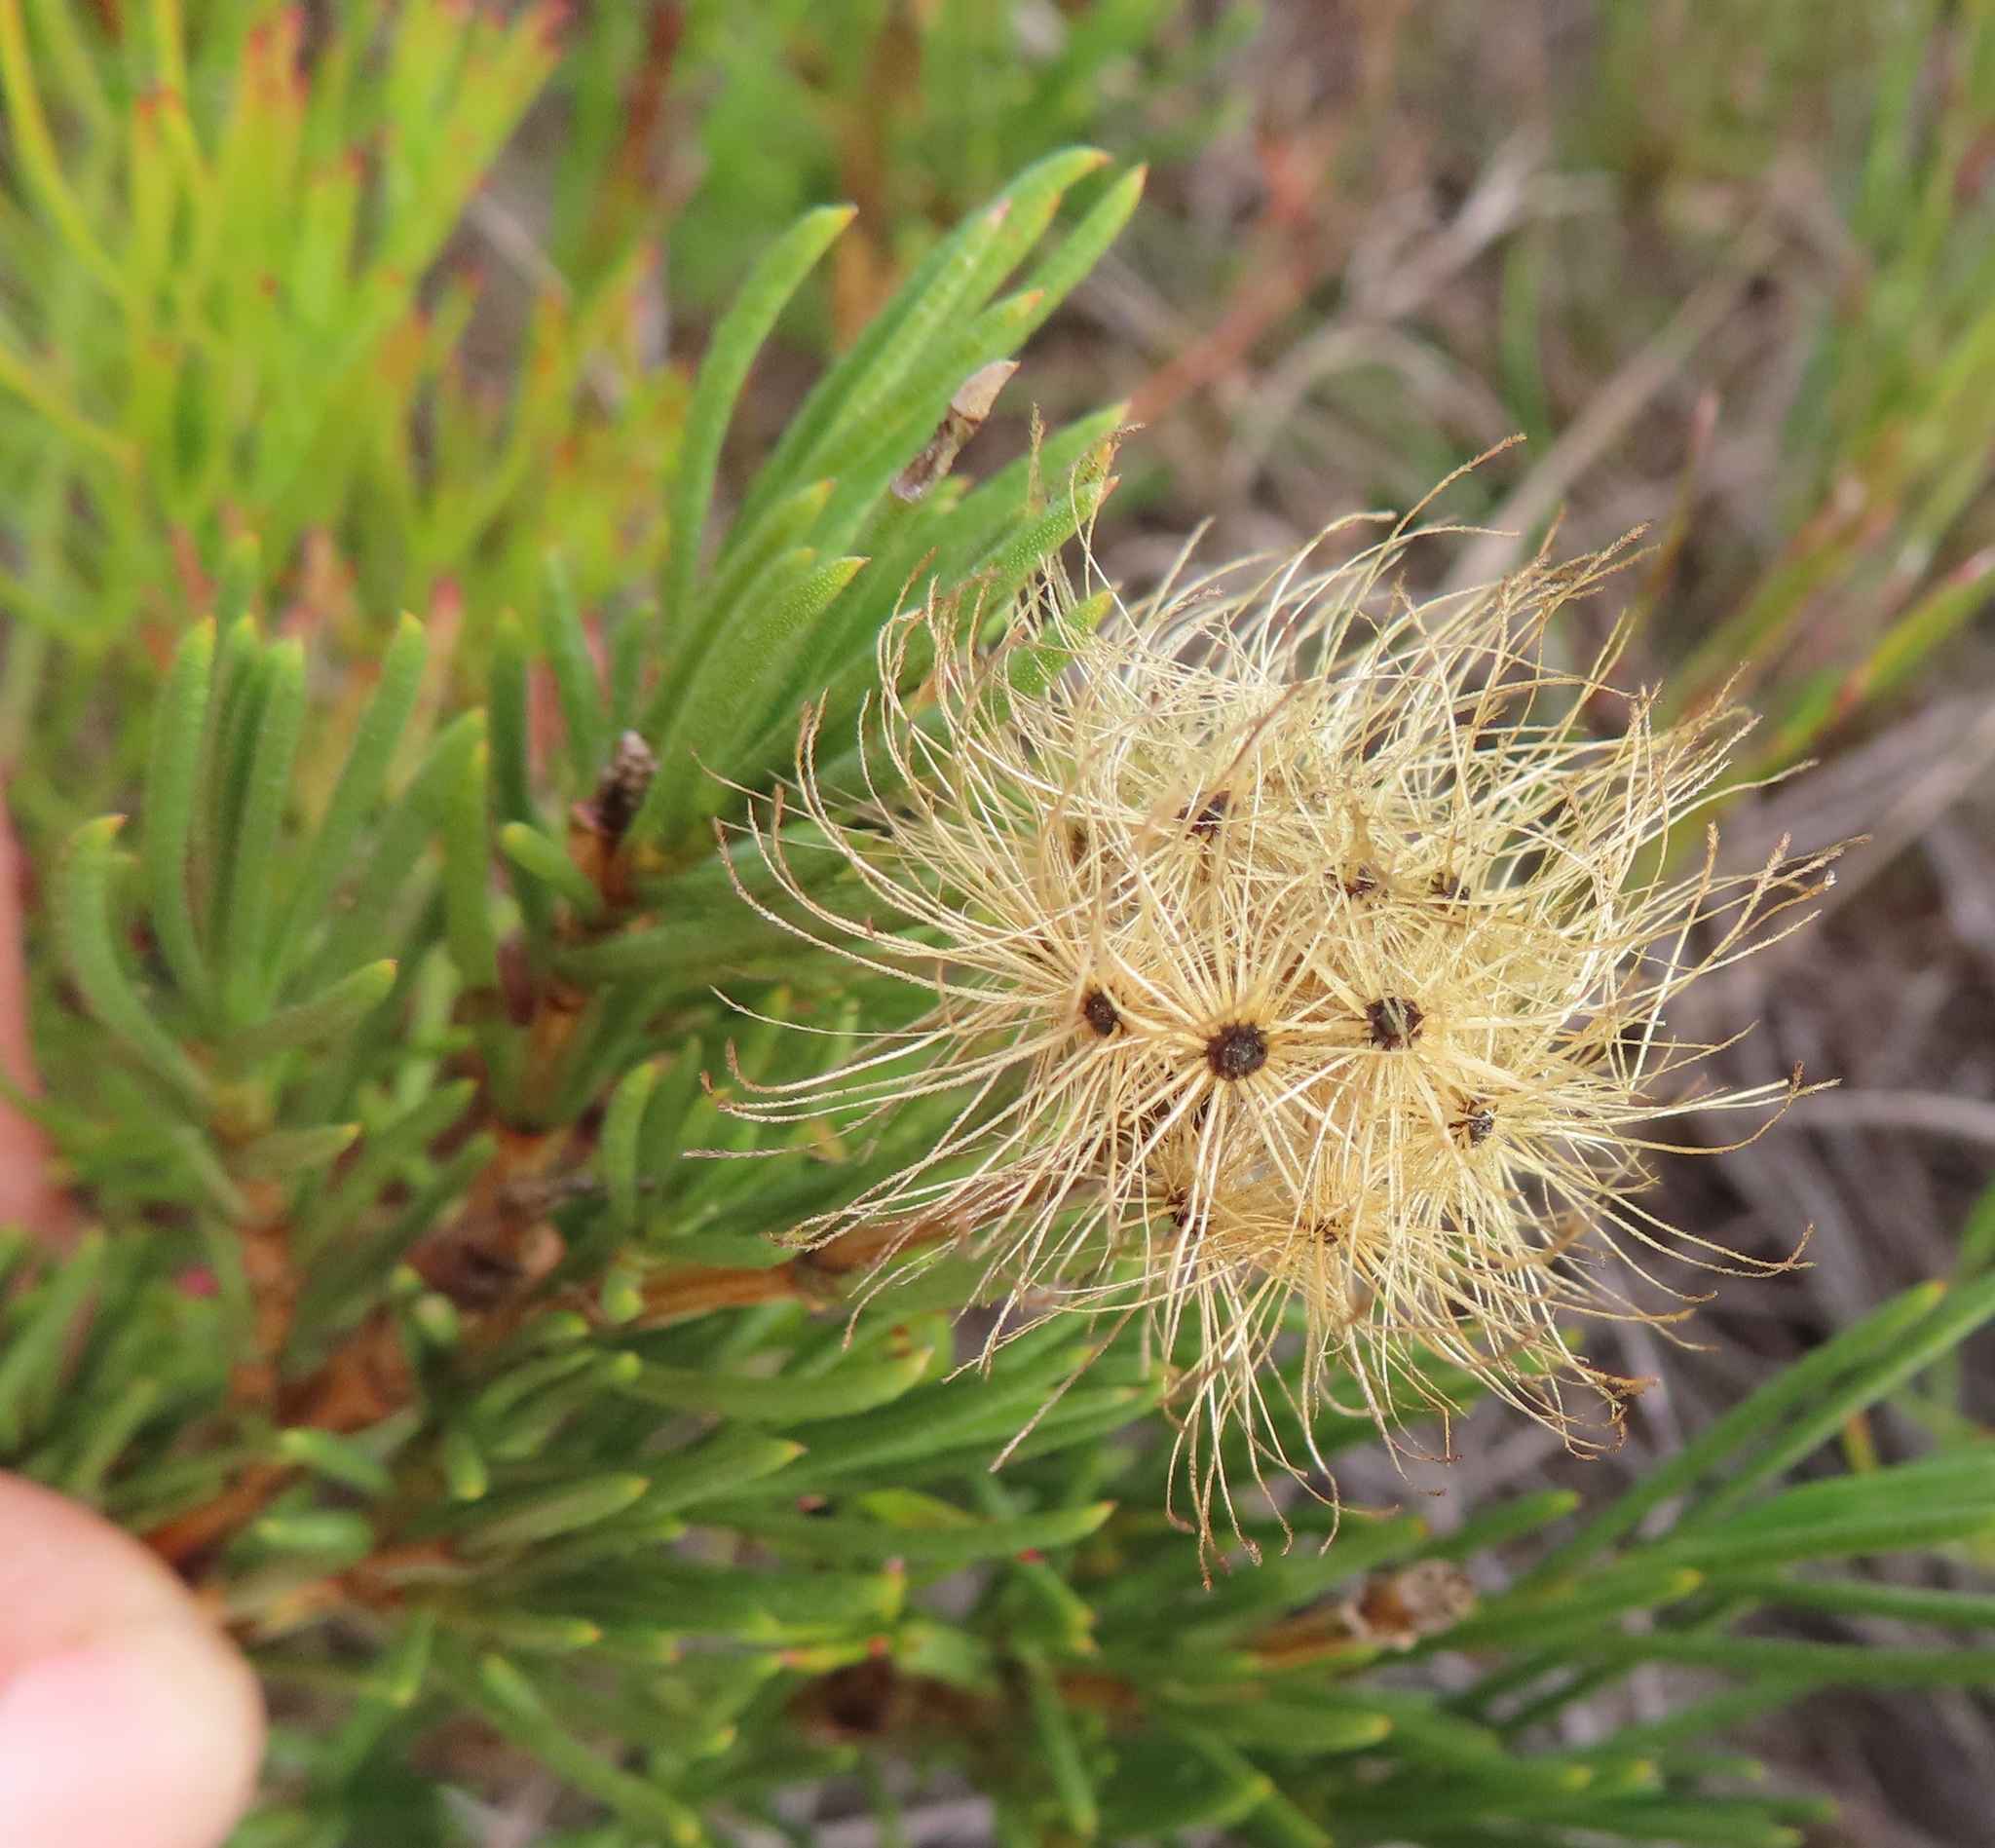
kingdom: Plantae
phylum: Tracheophyta
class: Magnoliopsida
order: Asterales
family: Asteraceae
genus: Pteronia
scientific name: Pteronia tenuifolia
